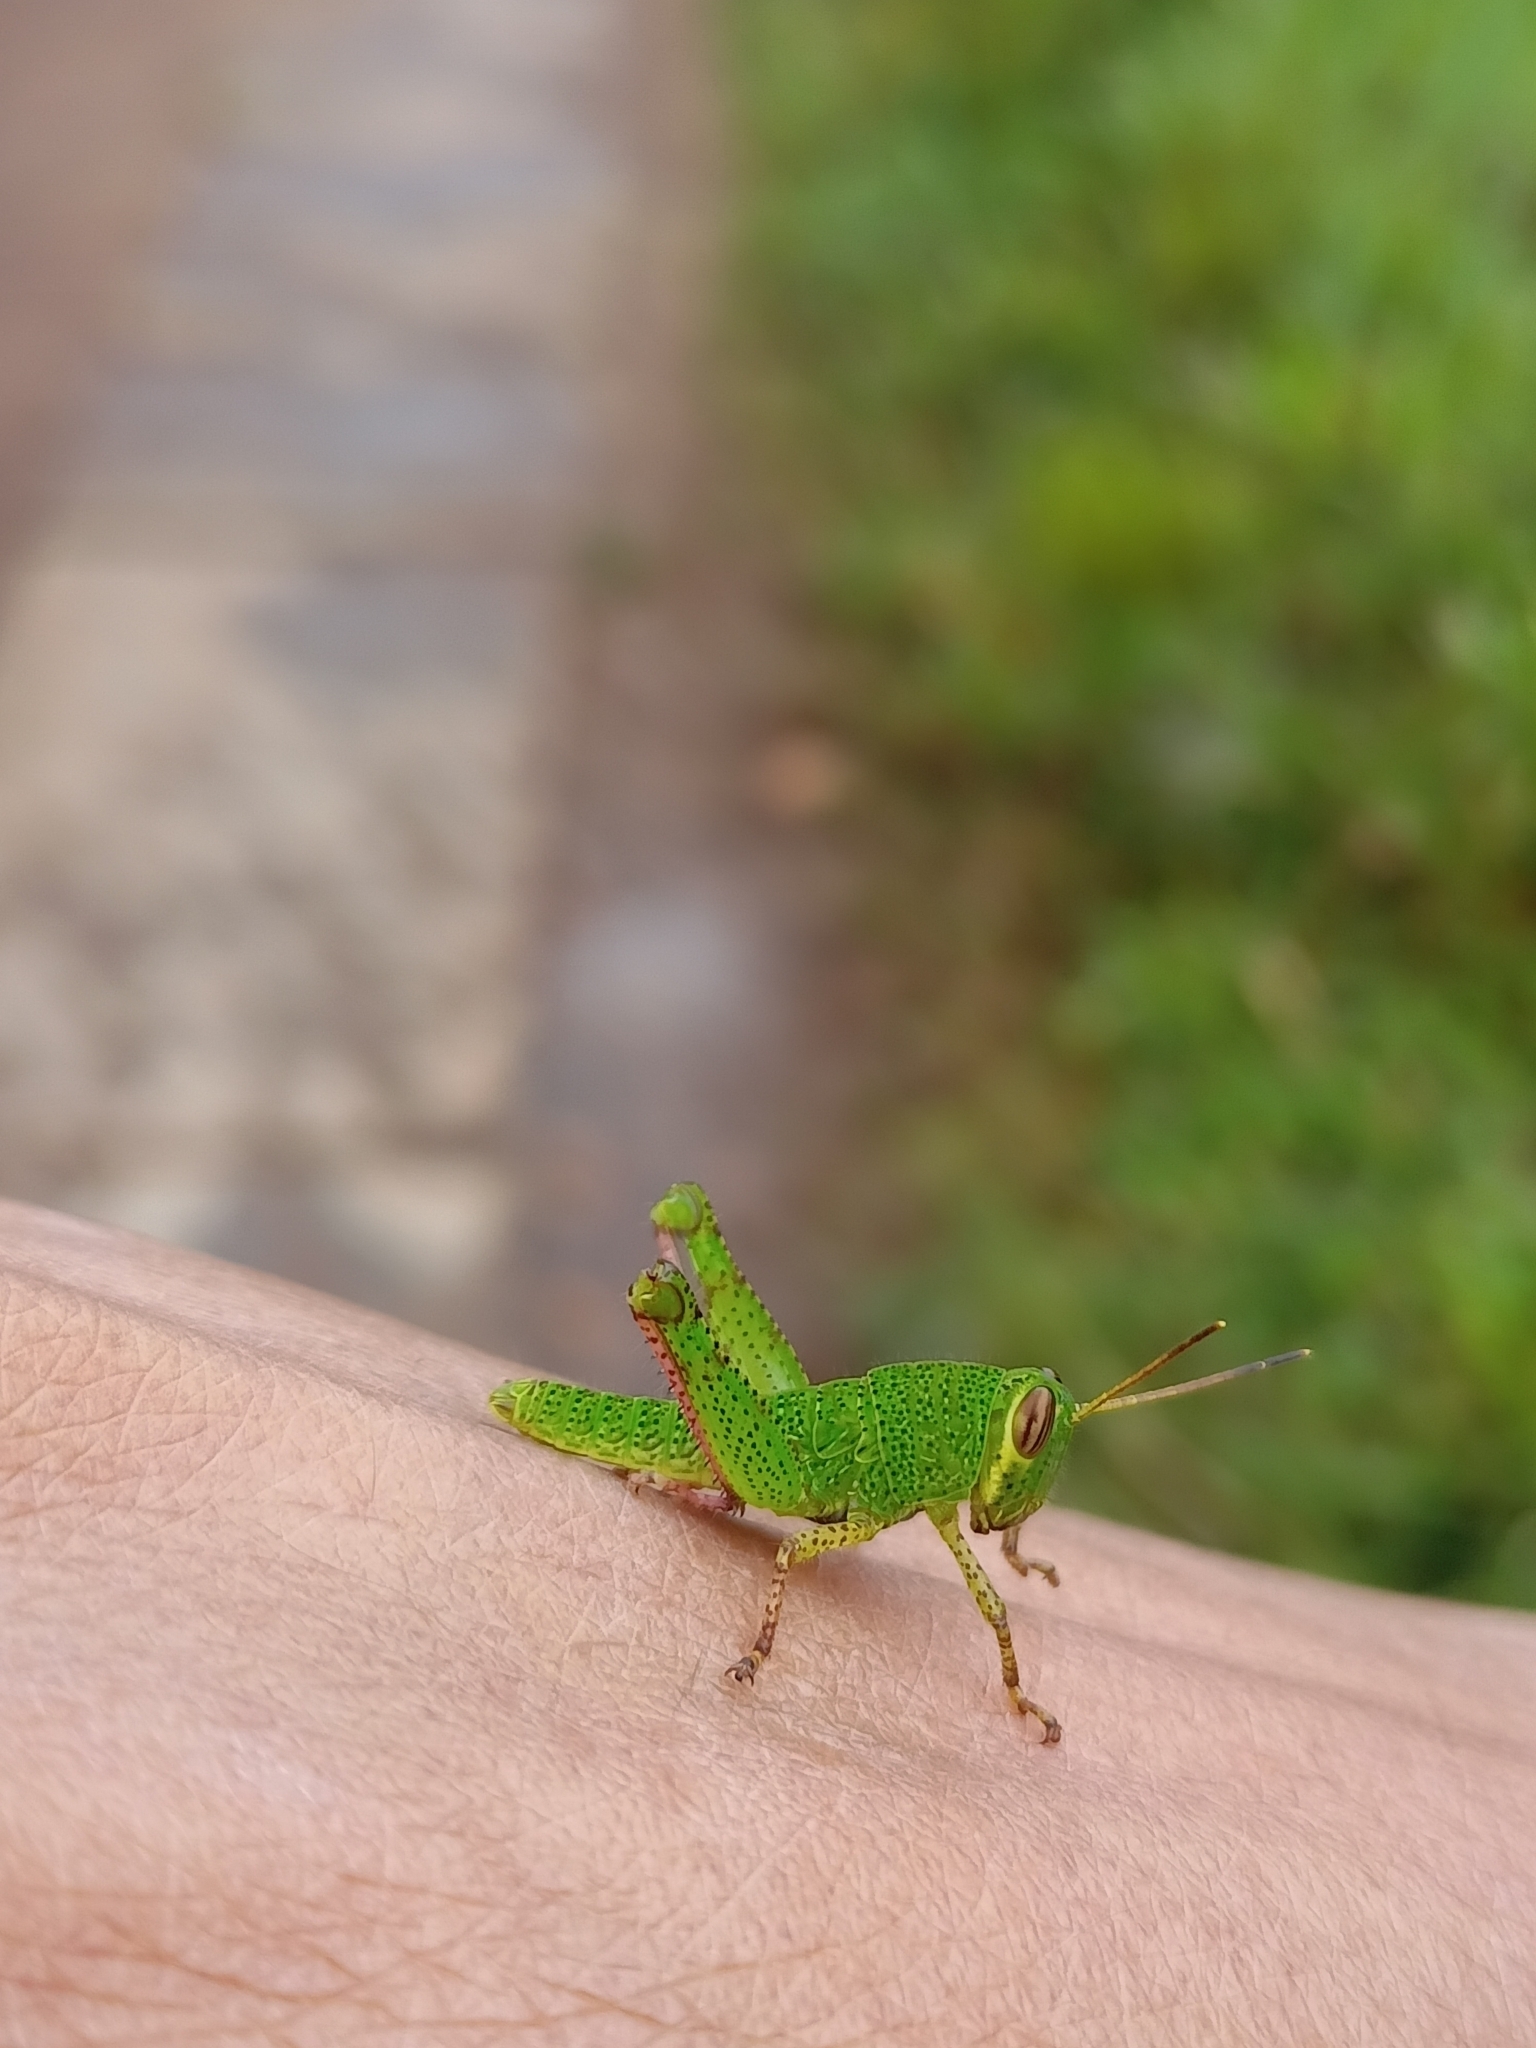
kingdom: Animalia
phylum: Arthropoda
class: Insecta
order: Orthoptera
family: Acrididae
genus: Pachyacris
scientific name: Pachyacris violascens
